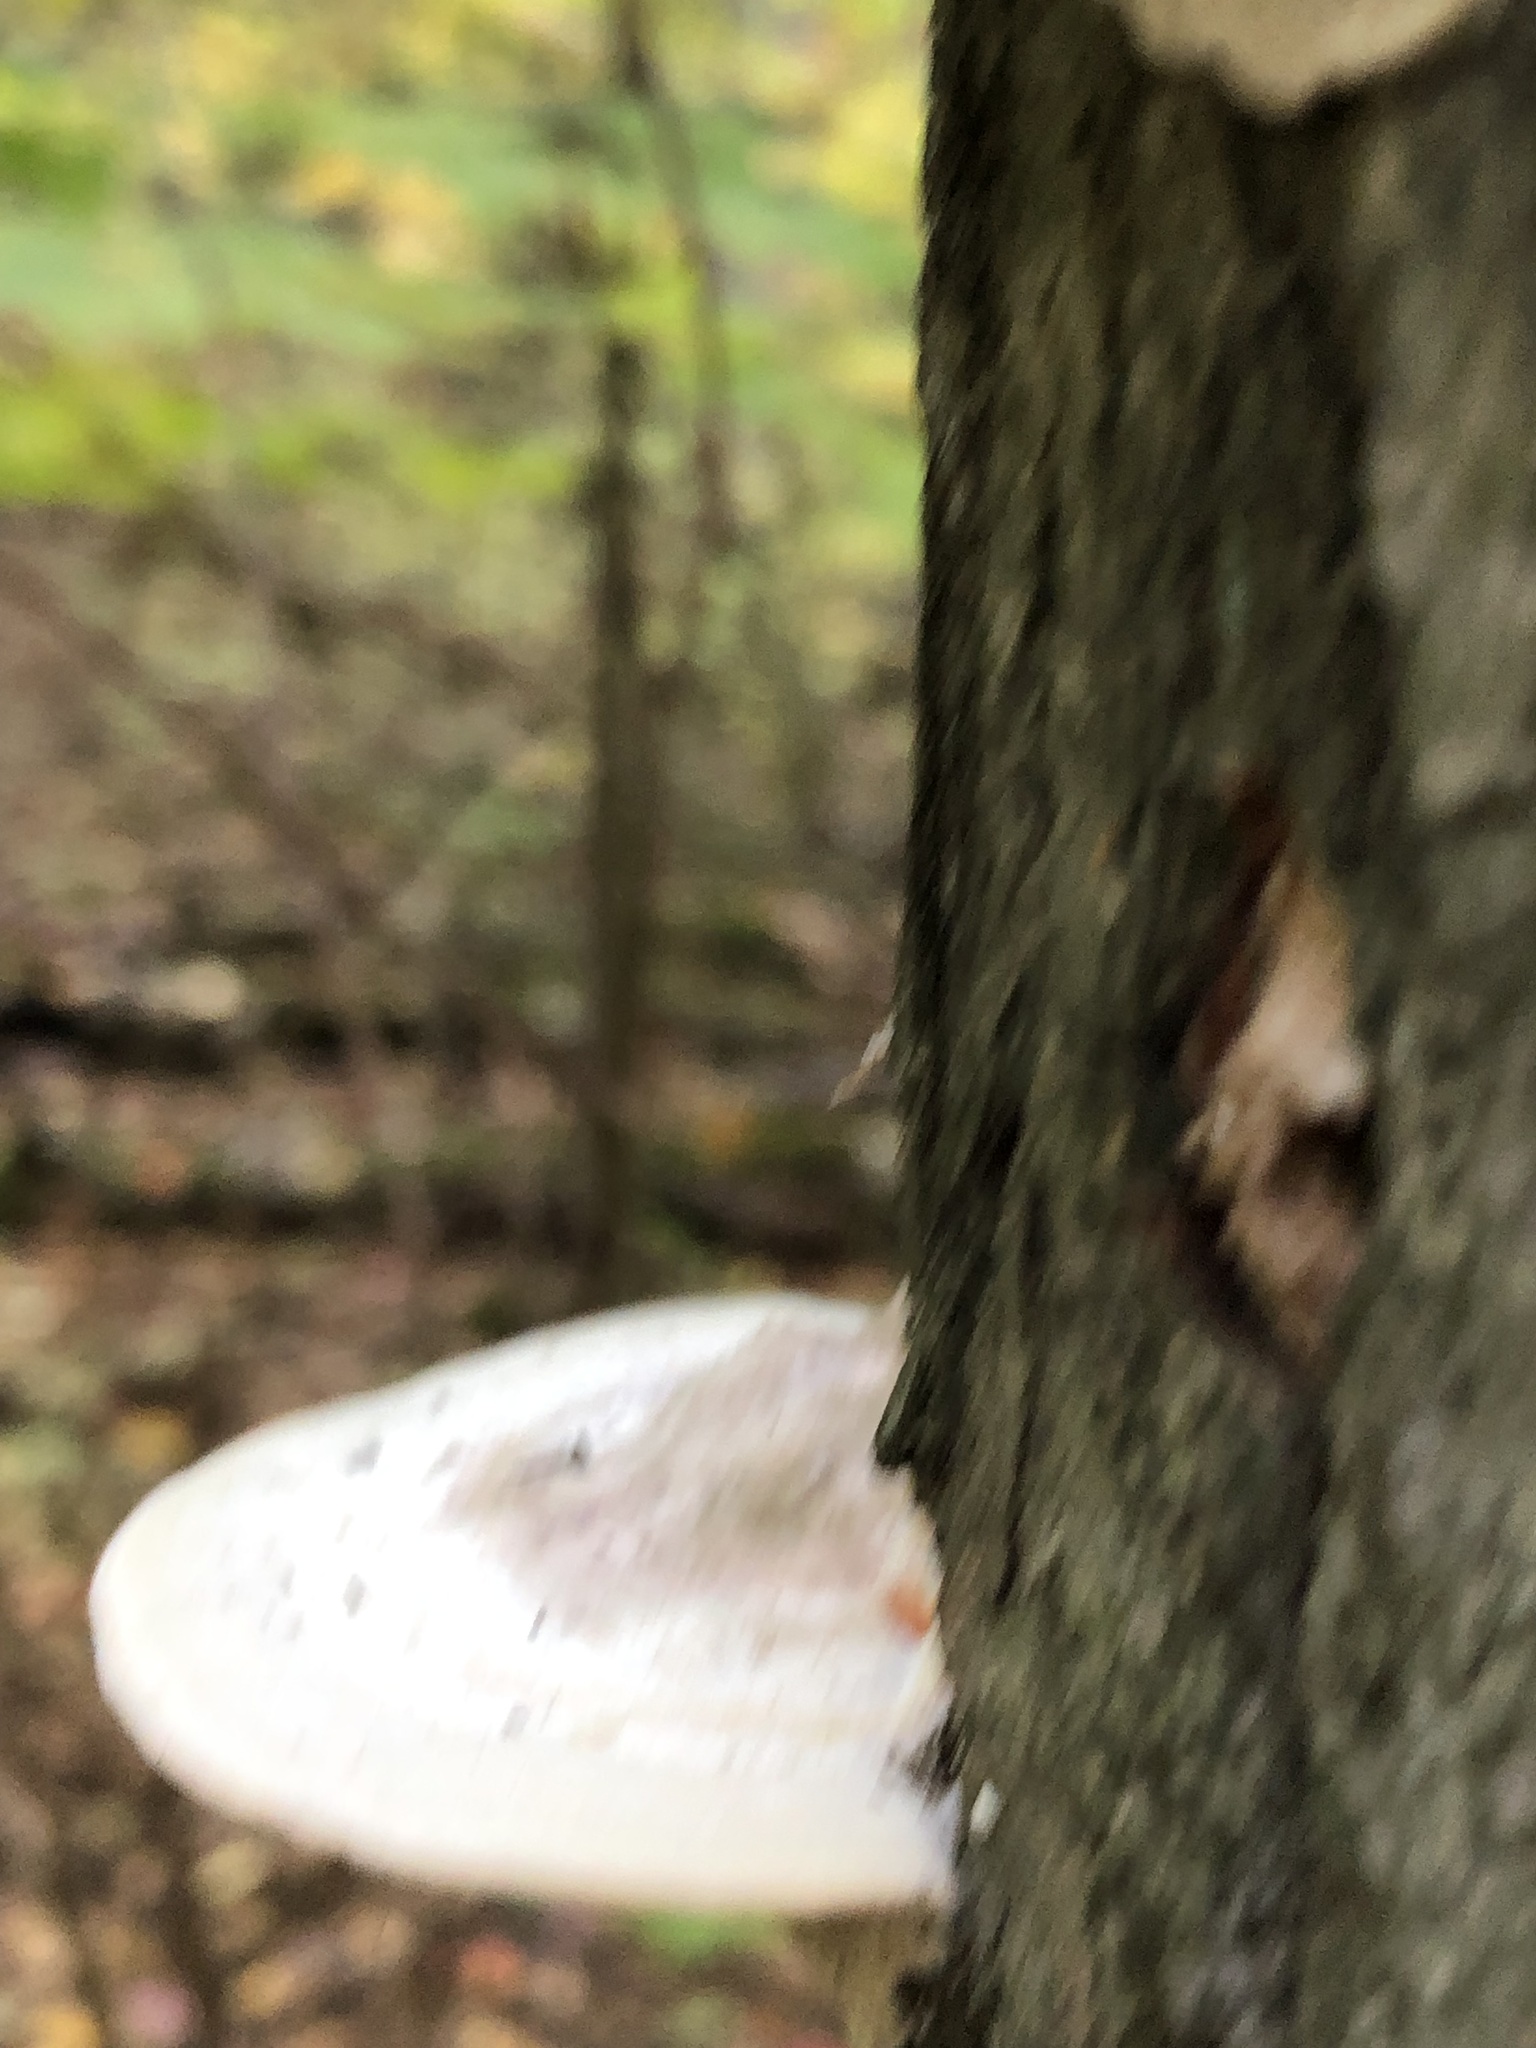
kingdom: Fungi
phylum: Basidiomycota
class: Agaricomycetes
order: Polyporales
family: Polyporaceae
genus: Trametes
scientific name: Trametes gibbosa
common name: Lumpy bracket
